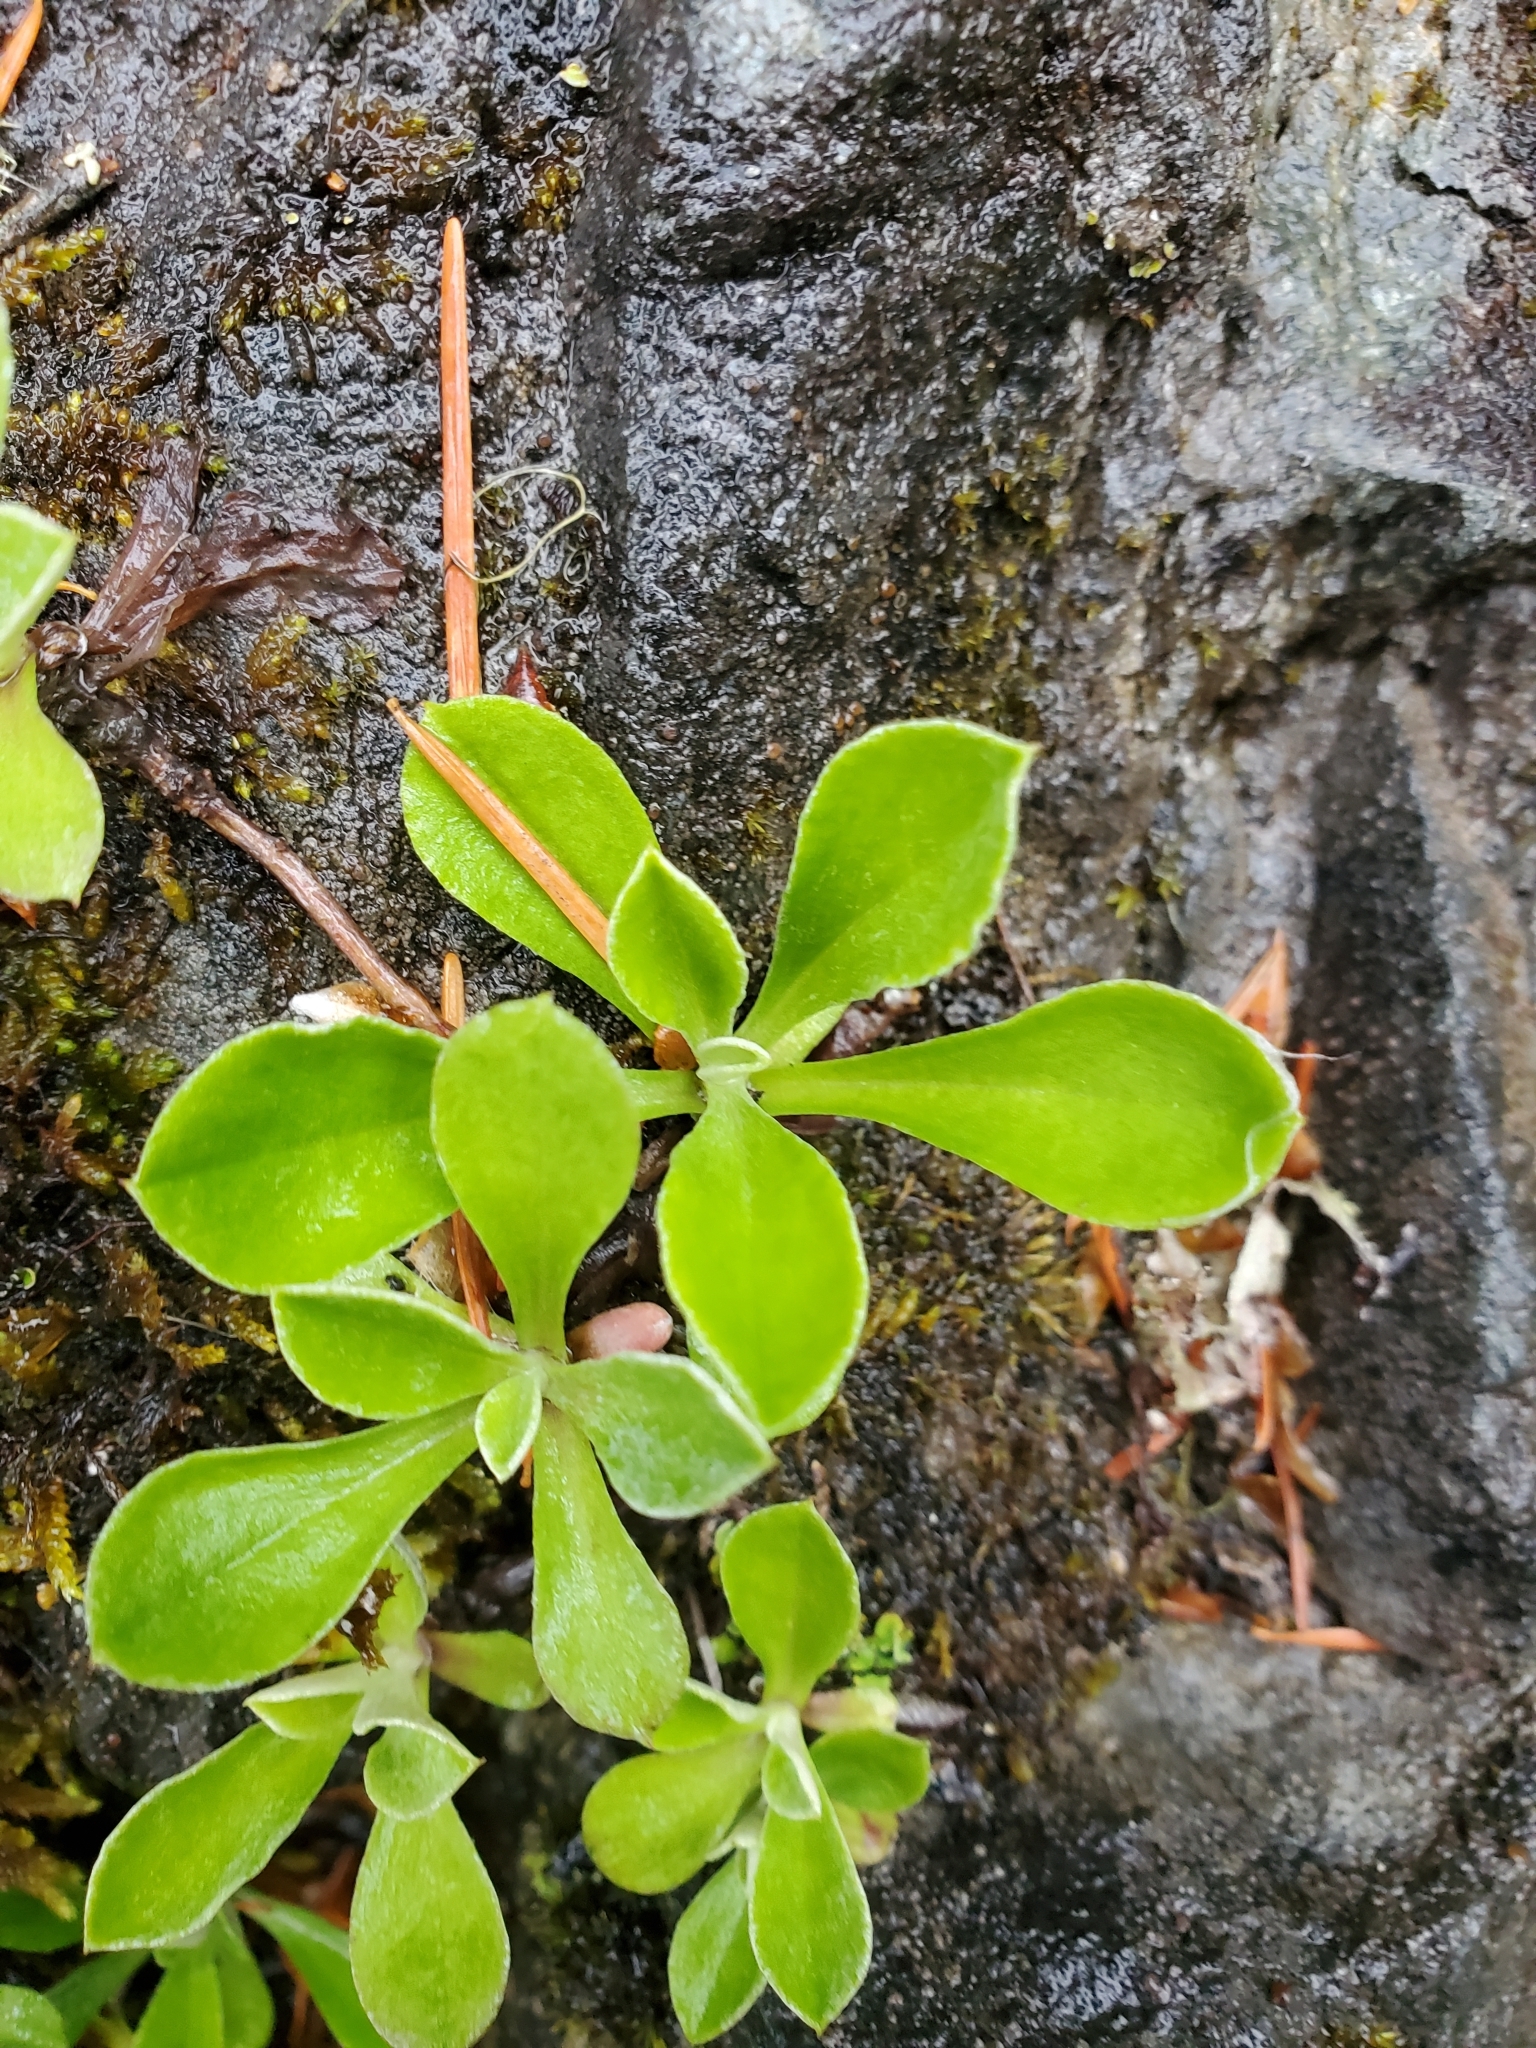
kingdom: Plantae
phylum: Tracheophyta
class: Magnoliopsida
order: Asterales
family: Asteraceae
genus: Antennaria
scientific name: Antennaria howellii
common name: Howell's pussytoes
